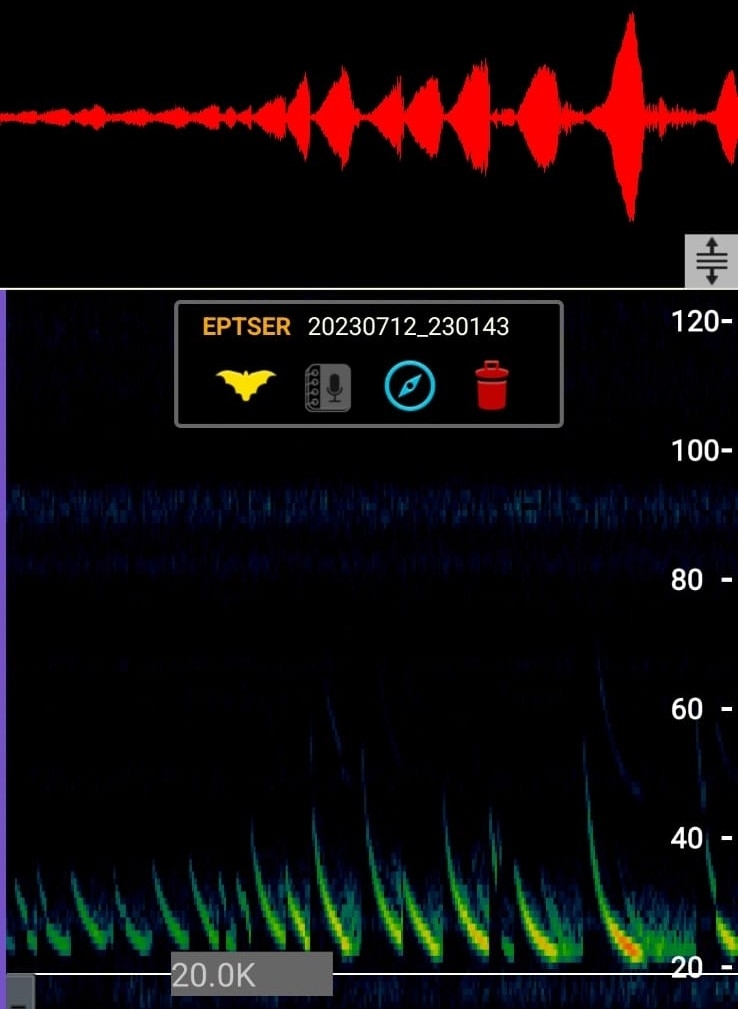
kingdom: Animalia
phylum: Chordata
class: Mammalia
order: Chiroptera
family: Vespertilionidae
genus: Eptesicus
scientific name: Eptesicus serotinus
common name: Serotine
